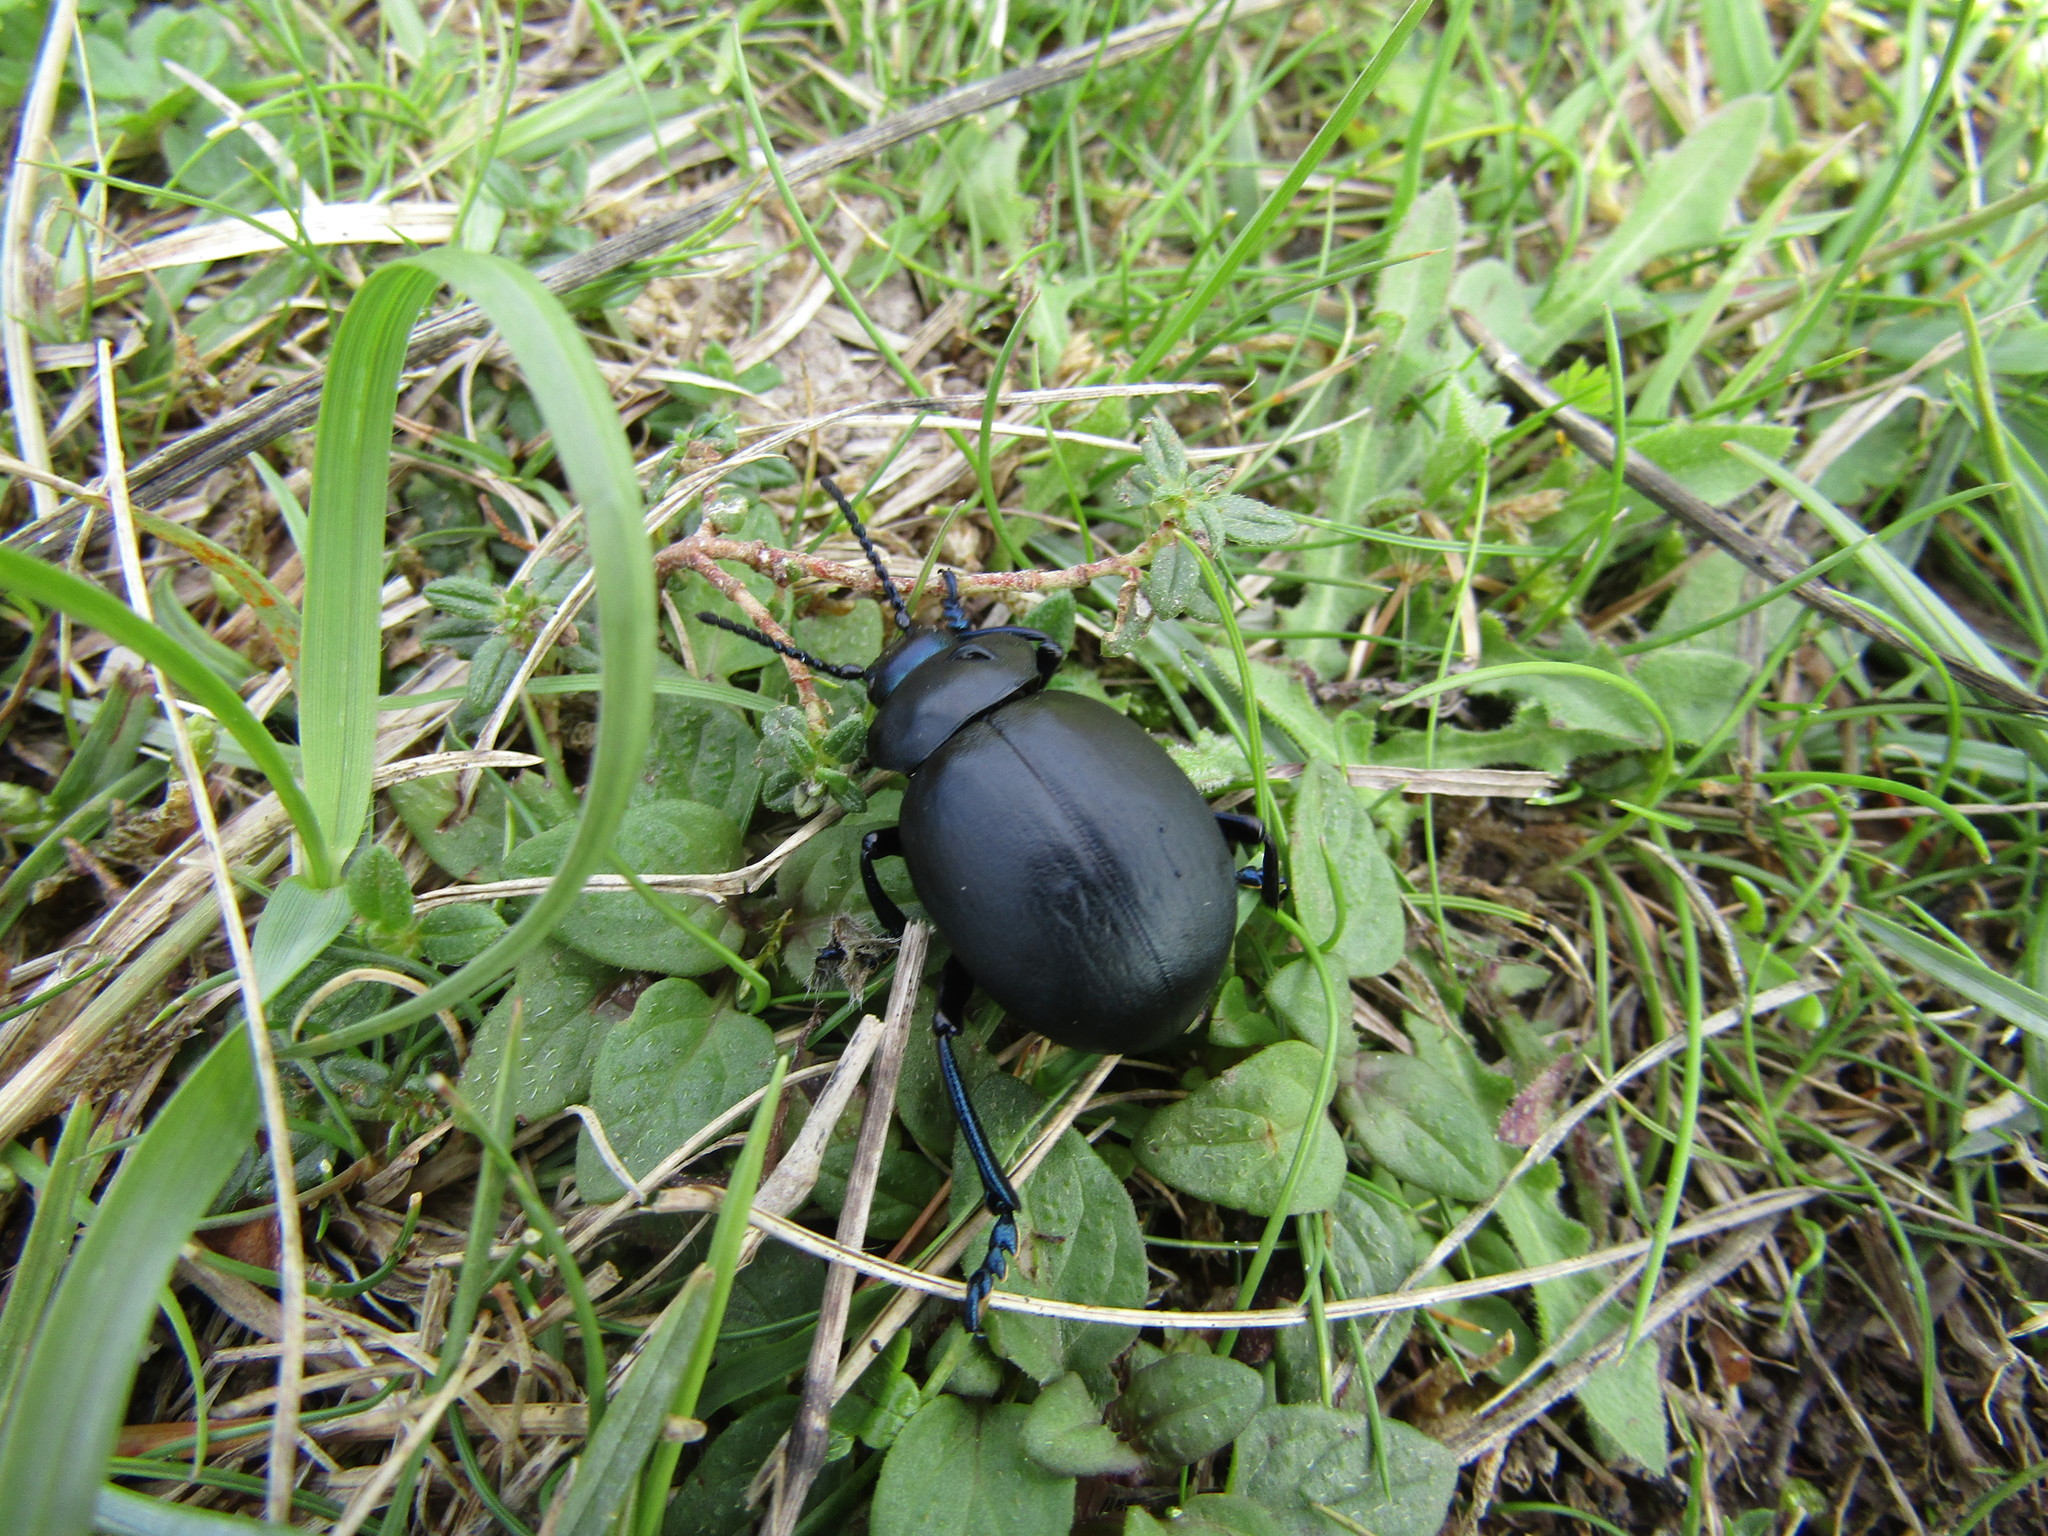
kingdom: Animalia
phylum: Arthropoda
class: Insecta
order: Coleoptera
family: Chrysomelidae
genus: Timarcha
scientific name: Timarcha tenebricosa
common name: Bloody-nosed beetle
